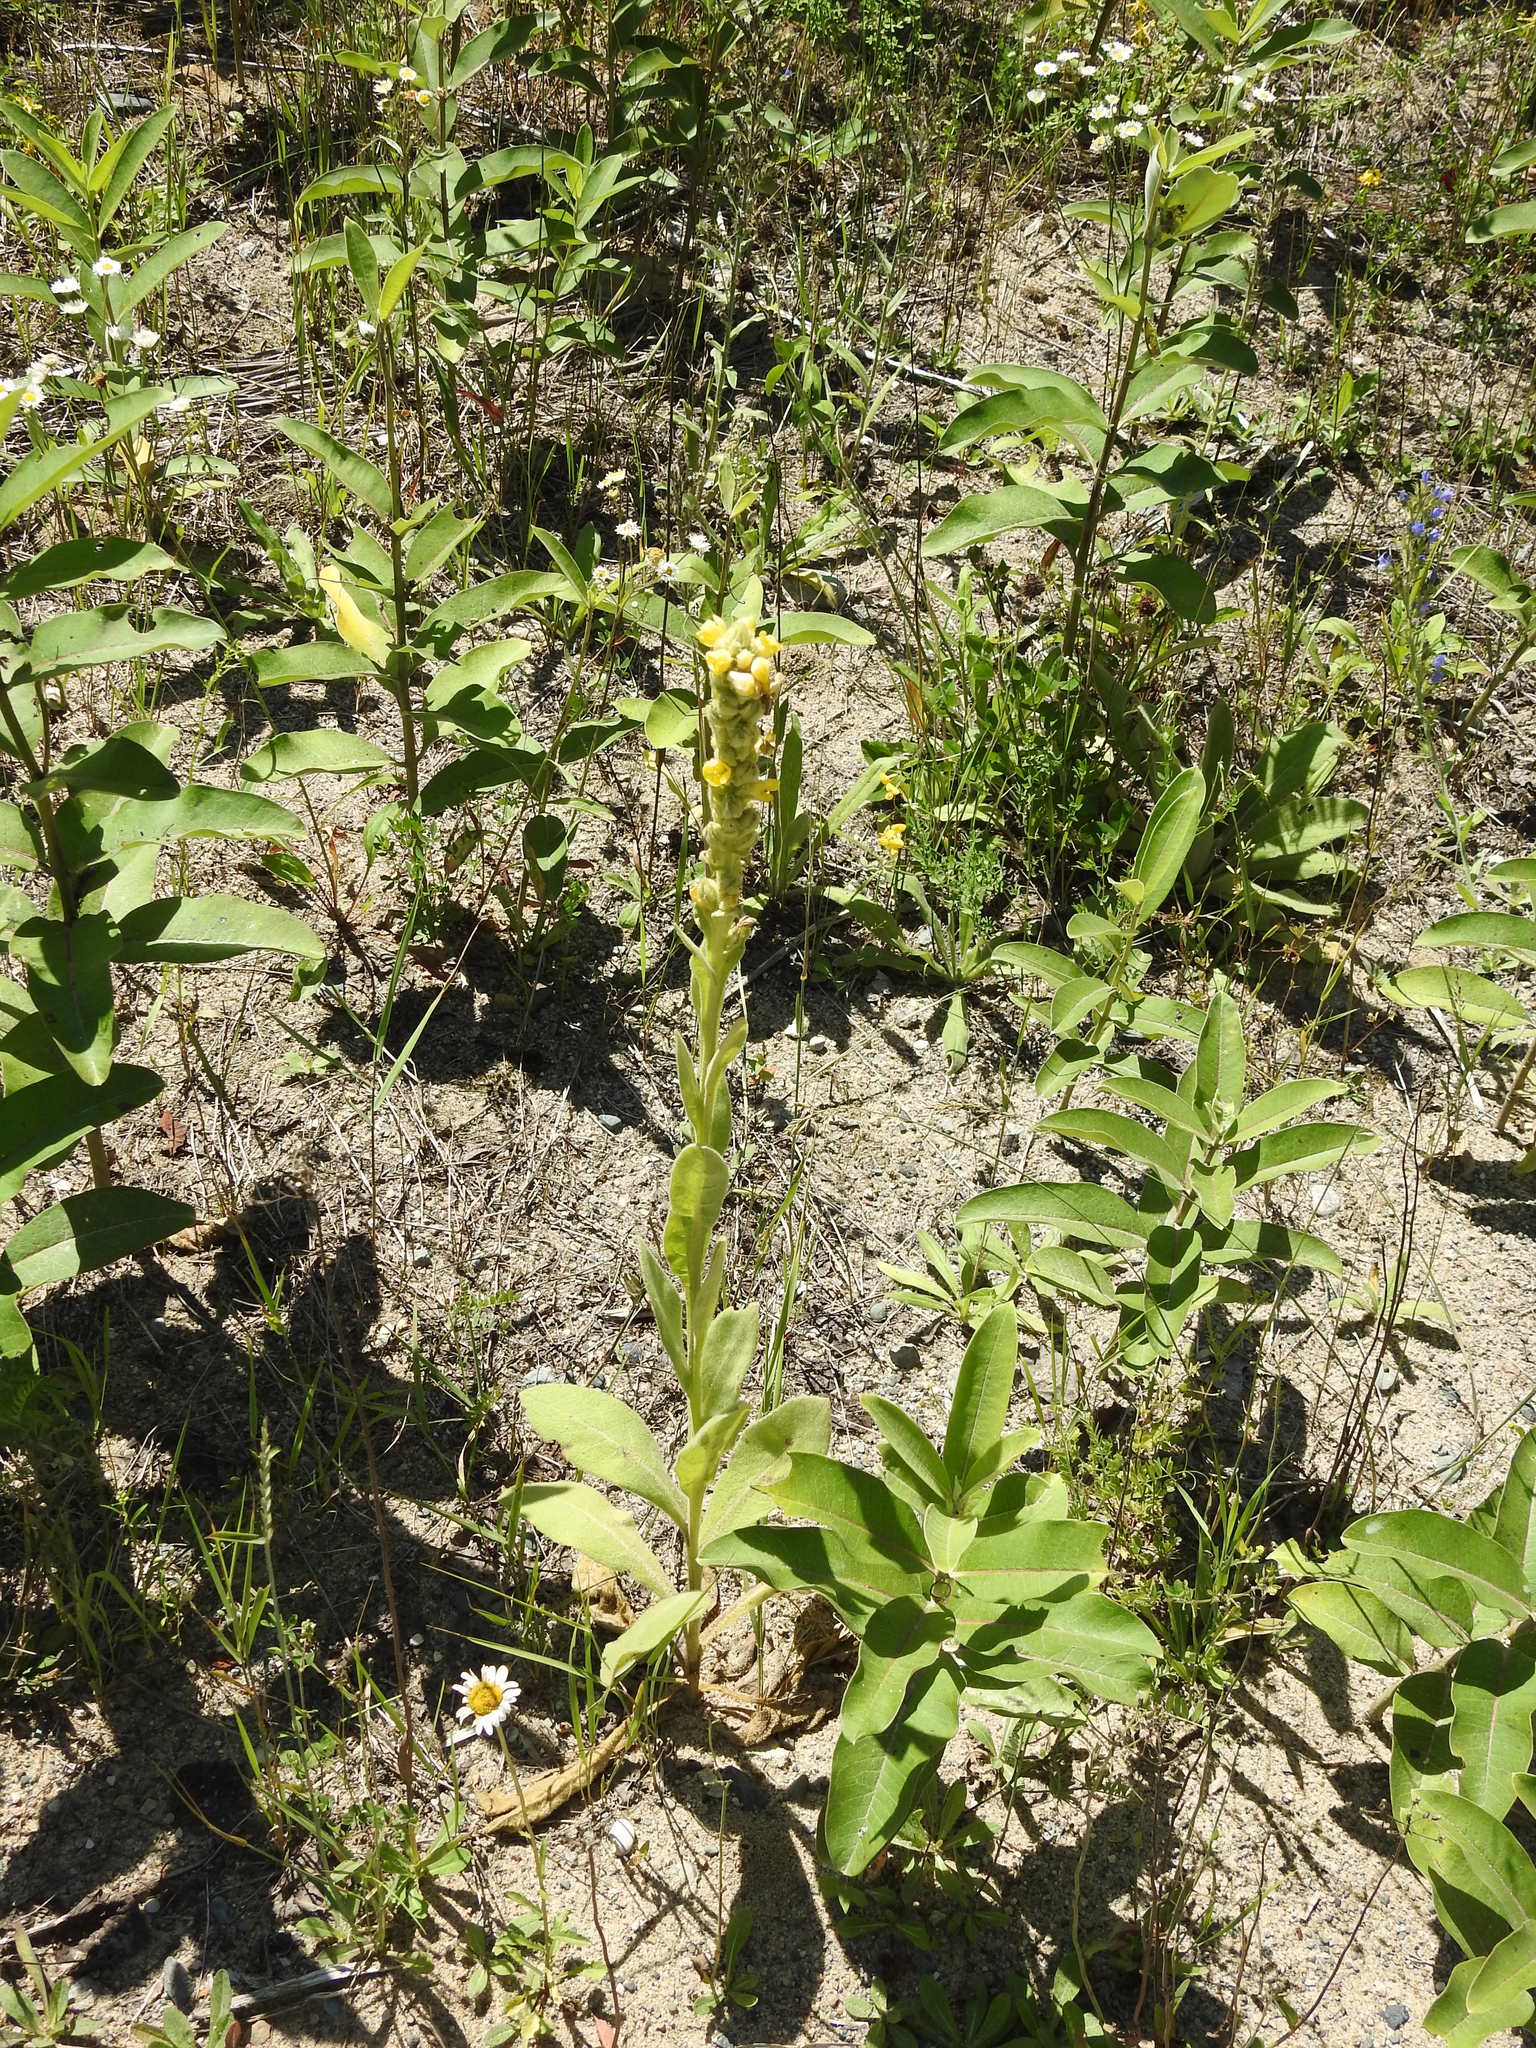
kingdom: Plantae
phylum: Tracheophyta
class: Magnoliopsida
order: Lamiales
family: Scrophulariaceae
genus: Verbascum
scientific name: Verbascum thapsus
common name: Common mullein
